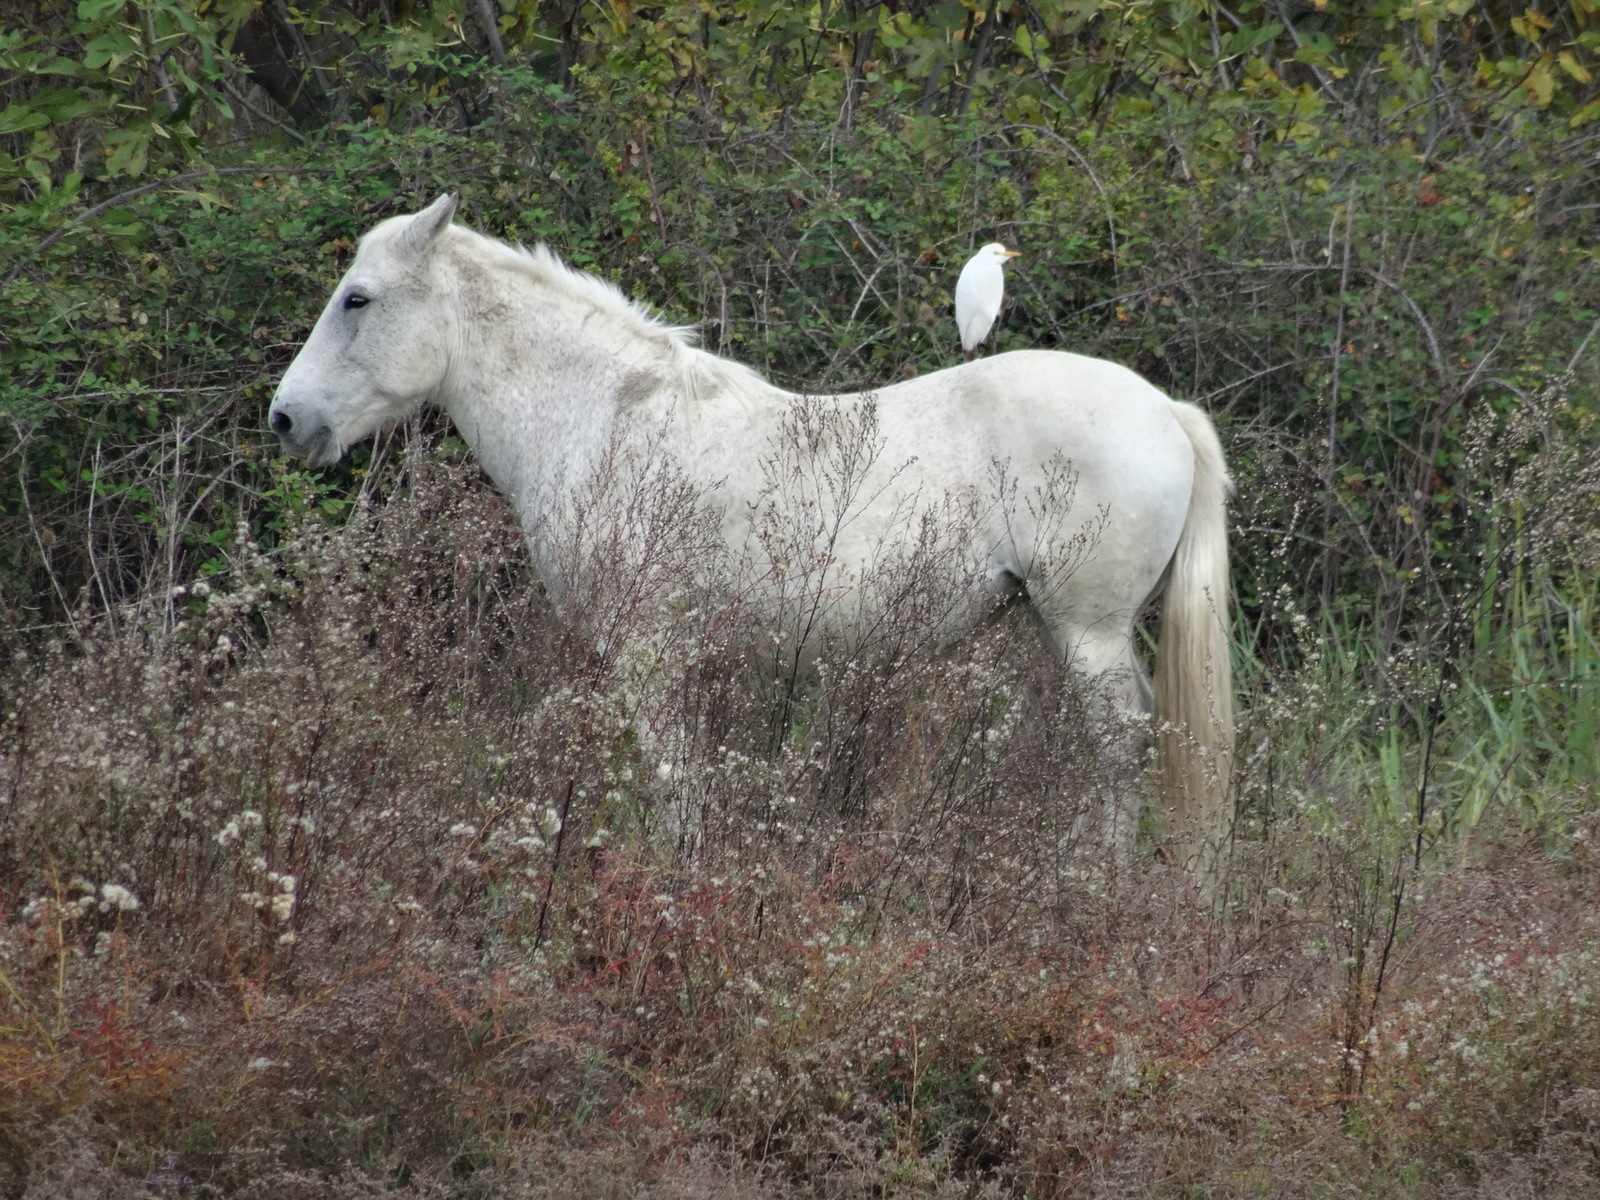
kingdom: Animalia
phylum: Chordata
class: Aves
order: Pelecaniformes
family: Ardeidae
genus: Bubulcus
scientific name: Bubulcus ibis
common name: Cattle egret
